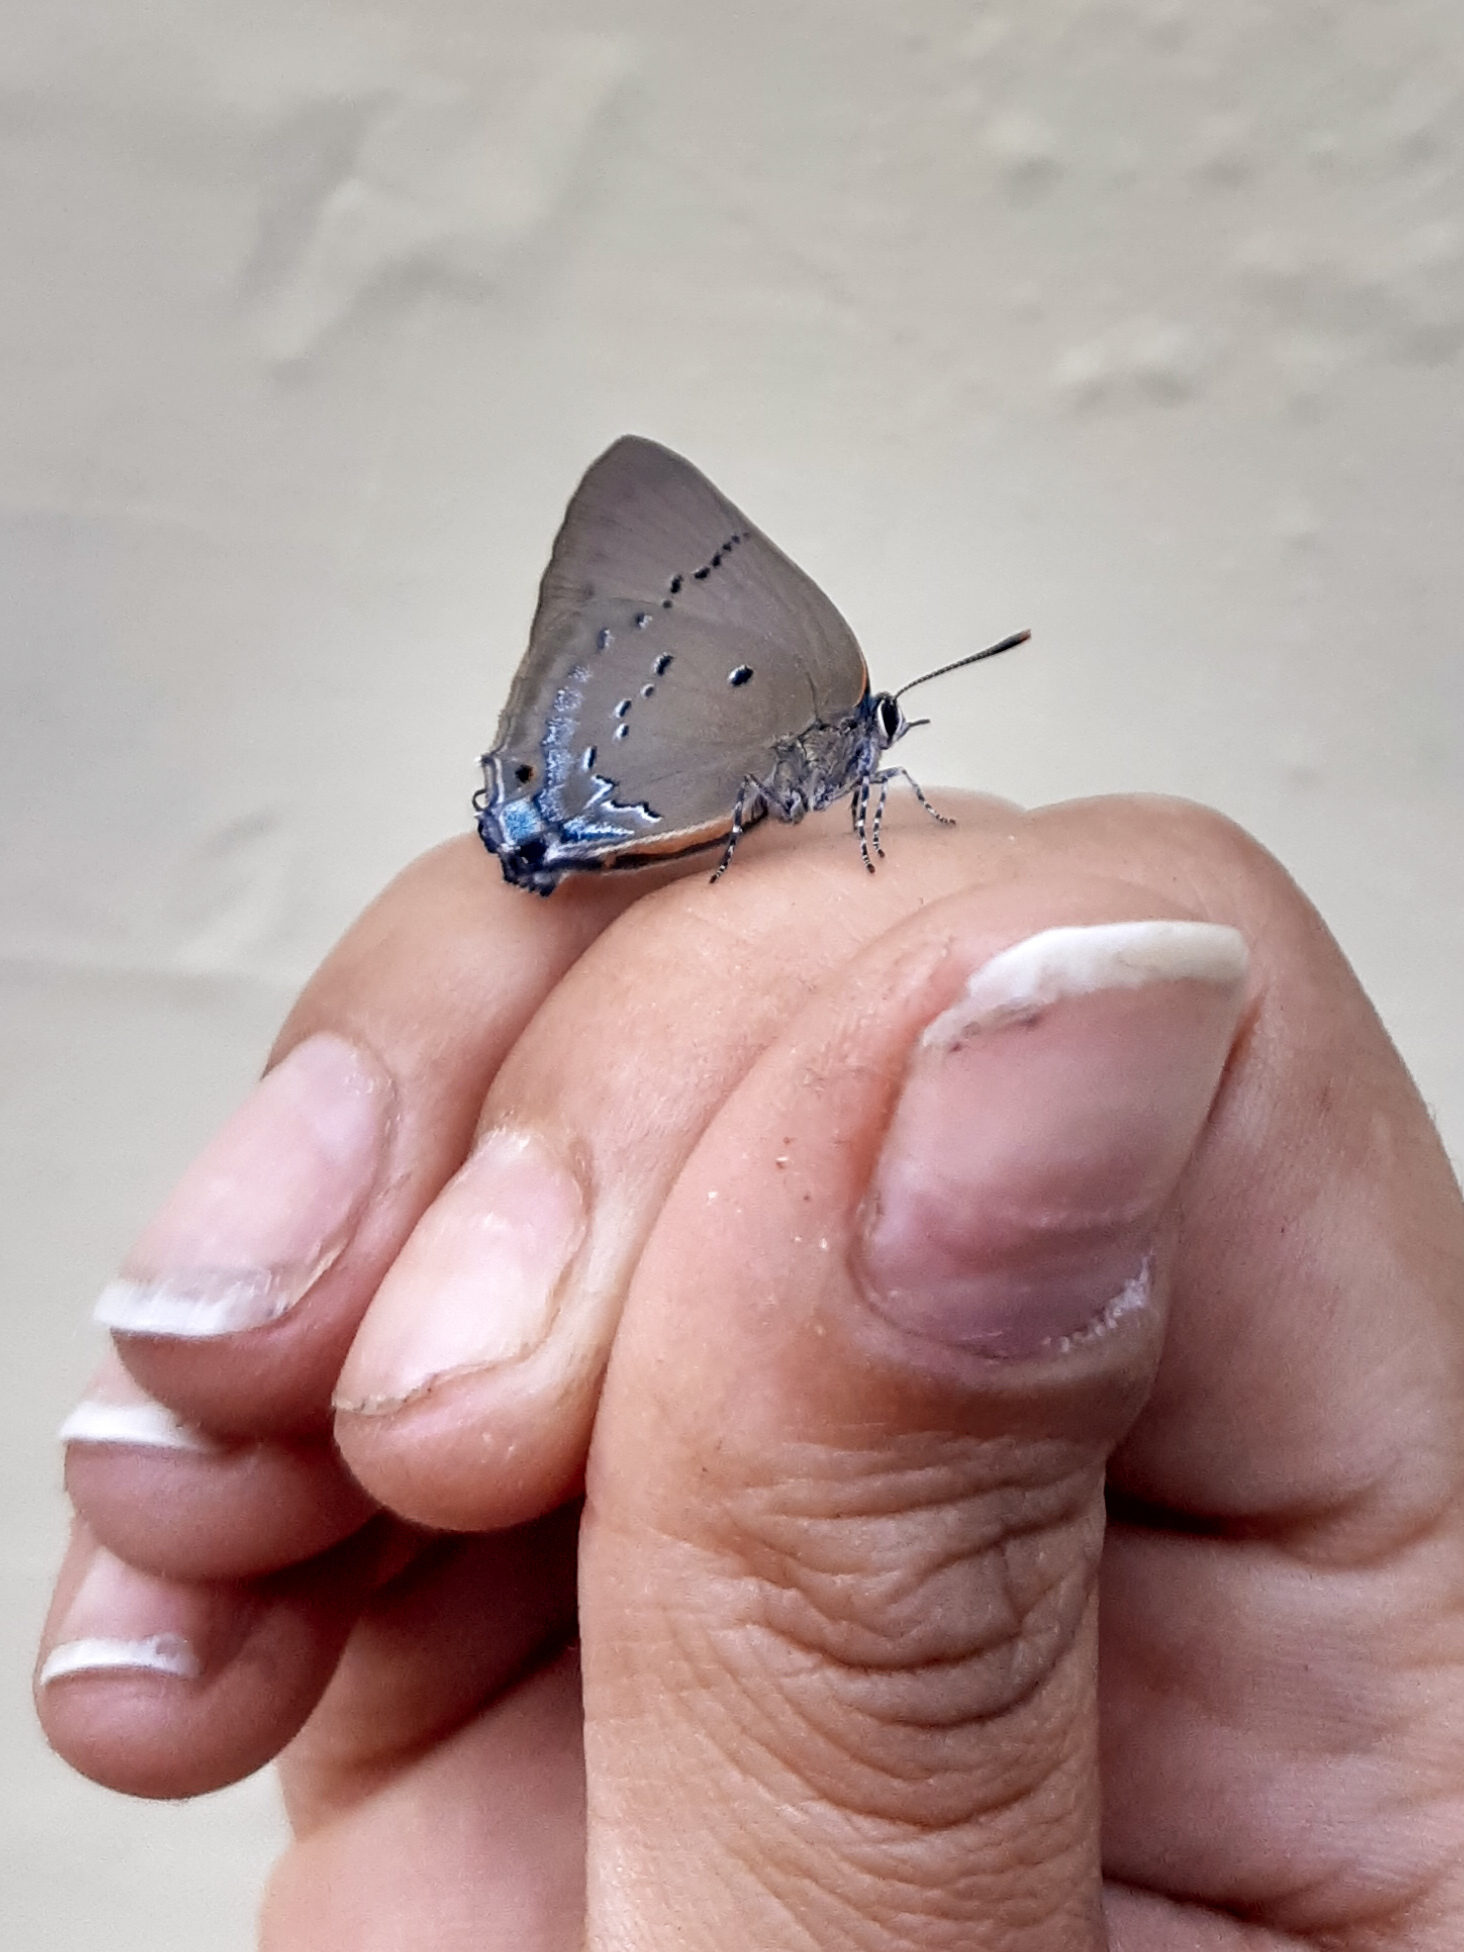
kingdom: Animalia
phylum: Arthropoda
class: Insecta
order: Lepidoptera
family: Lycaenidae
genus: Parrhasius
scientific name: Parrhasius polibetes
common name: Black-spot hairstreak
